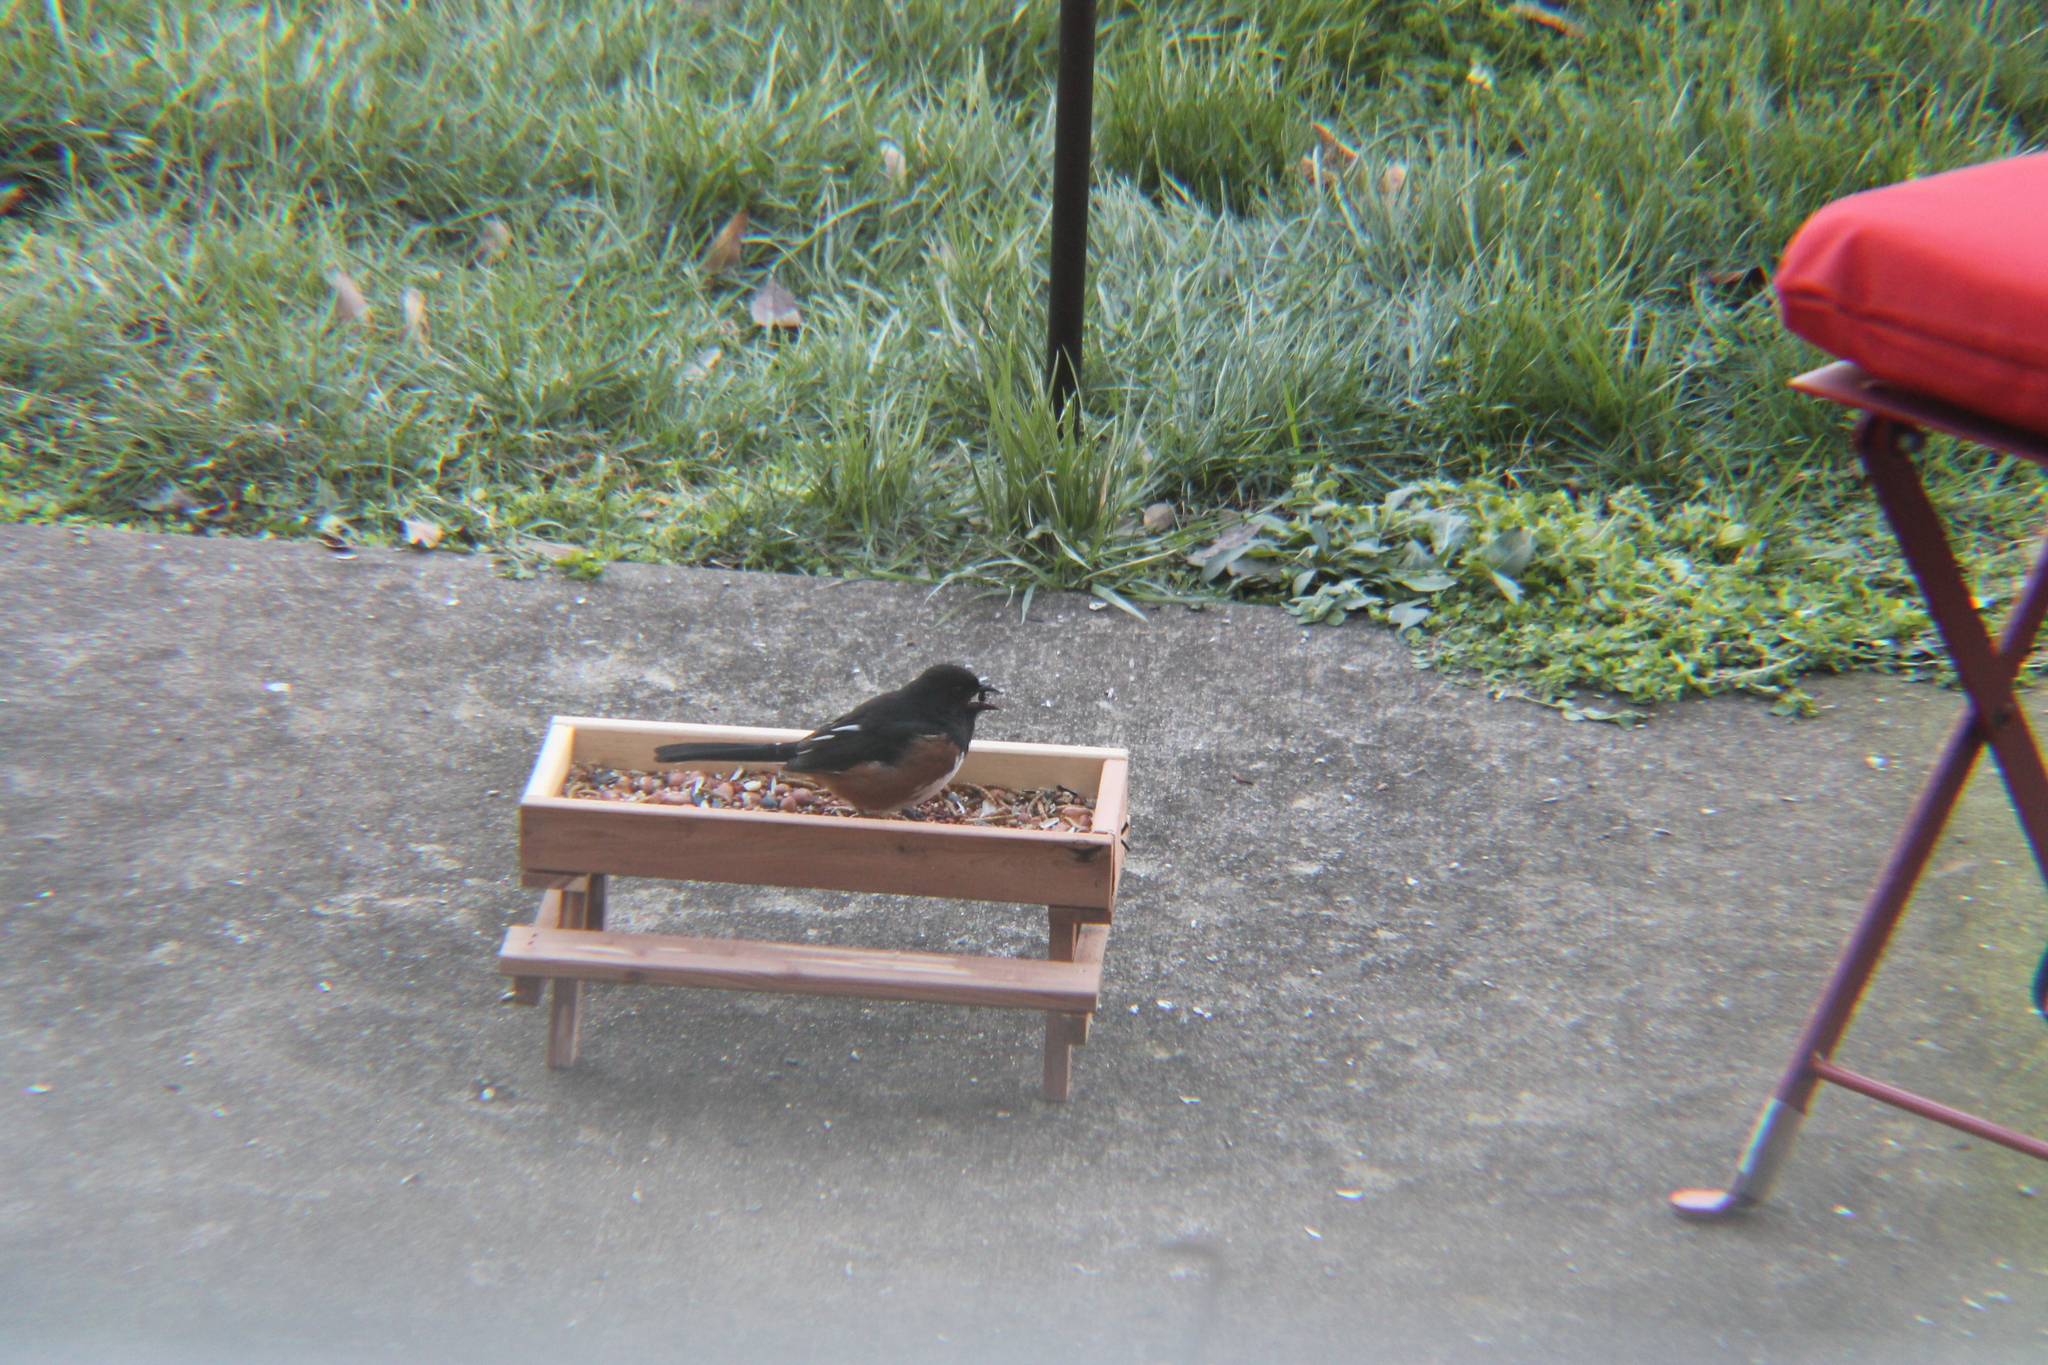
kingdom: Animalia
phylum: Chordata
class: Aves
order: Passeriformes
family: Passerellidae
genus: Pipilo
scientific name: Pipilo erythrophthalmus
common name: Eastern towhee
